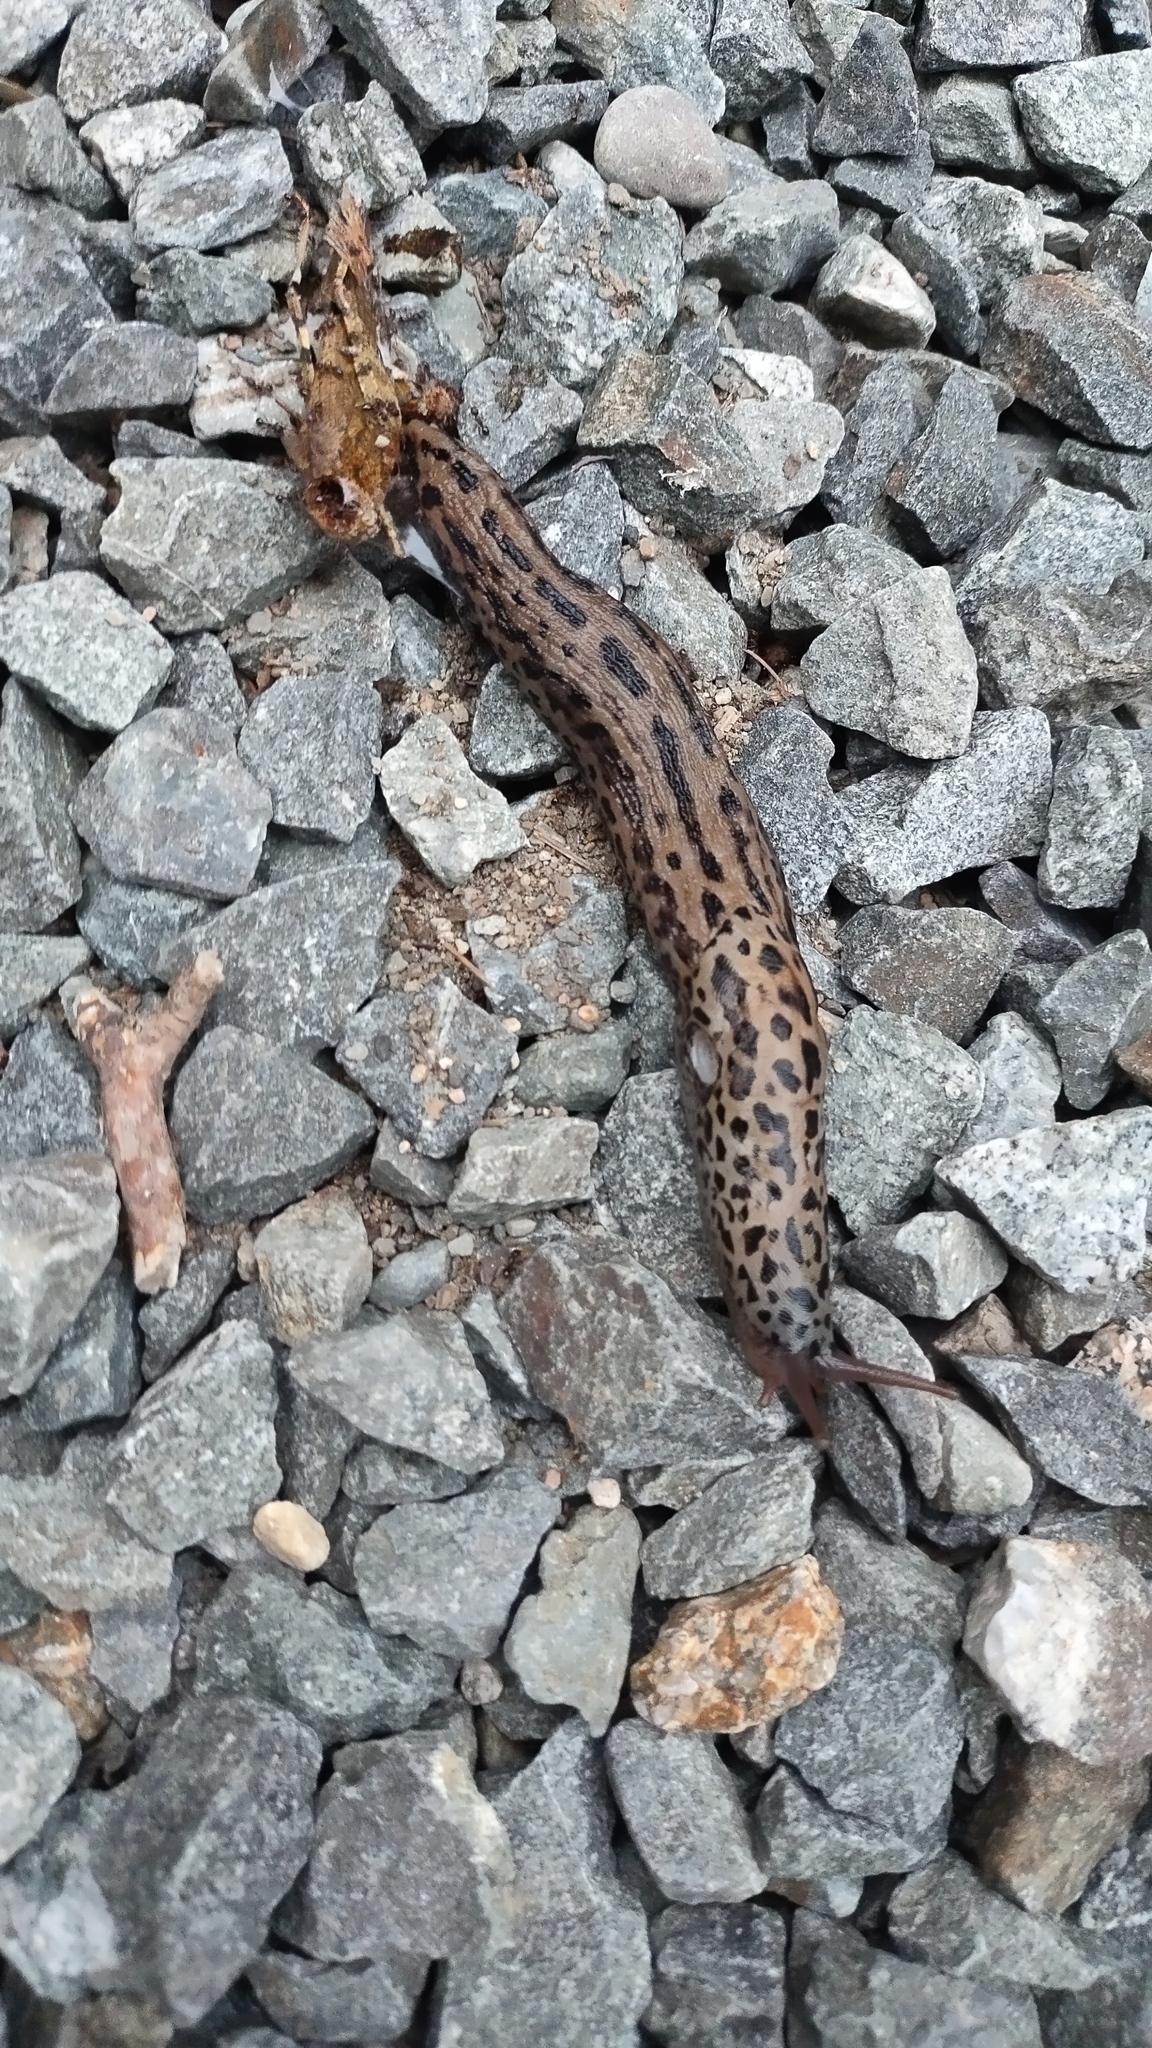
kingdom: Animalia
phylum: Mollusca
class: Gastropoda
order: Stylommatophora
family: Limacidae
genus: Limax
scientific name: Limax maximus
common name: Great grey slug
